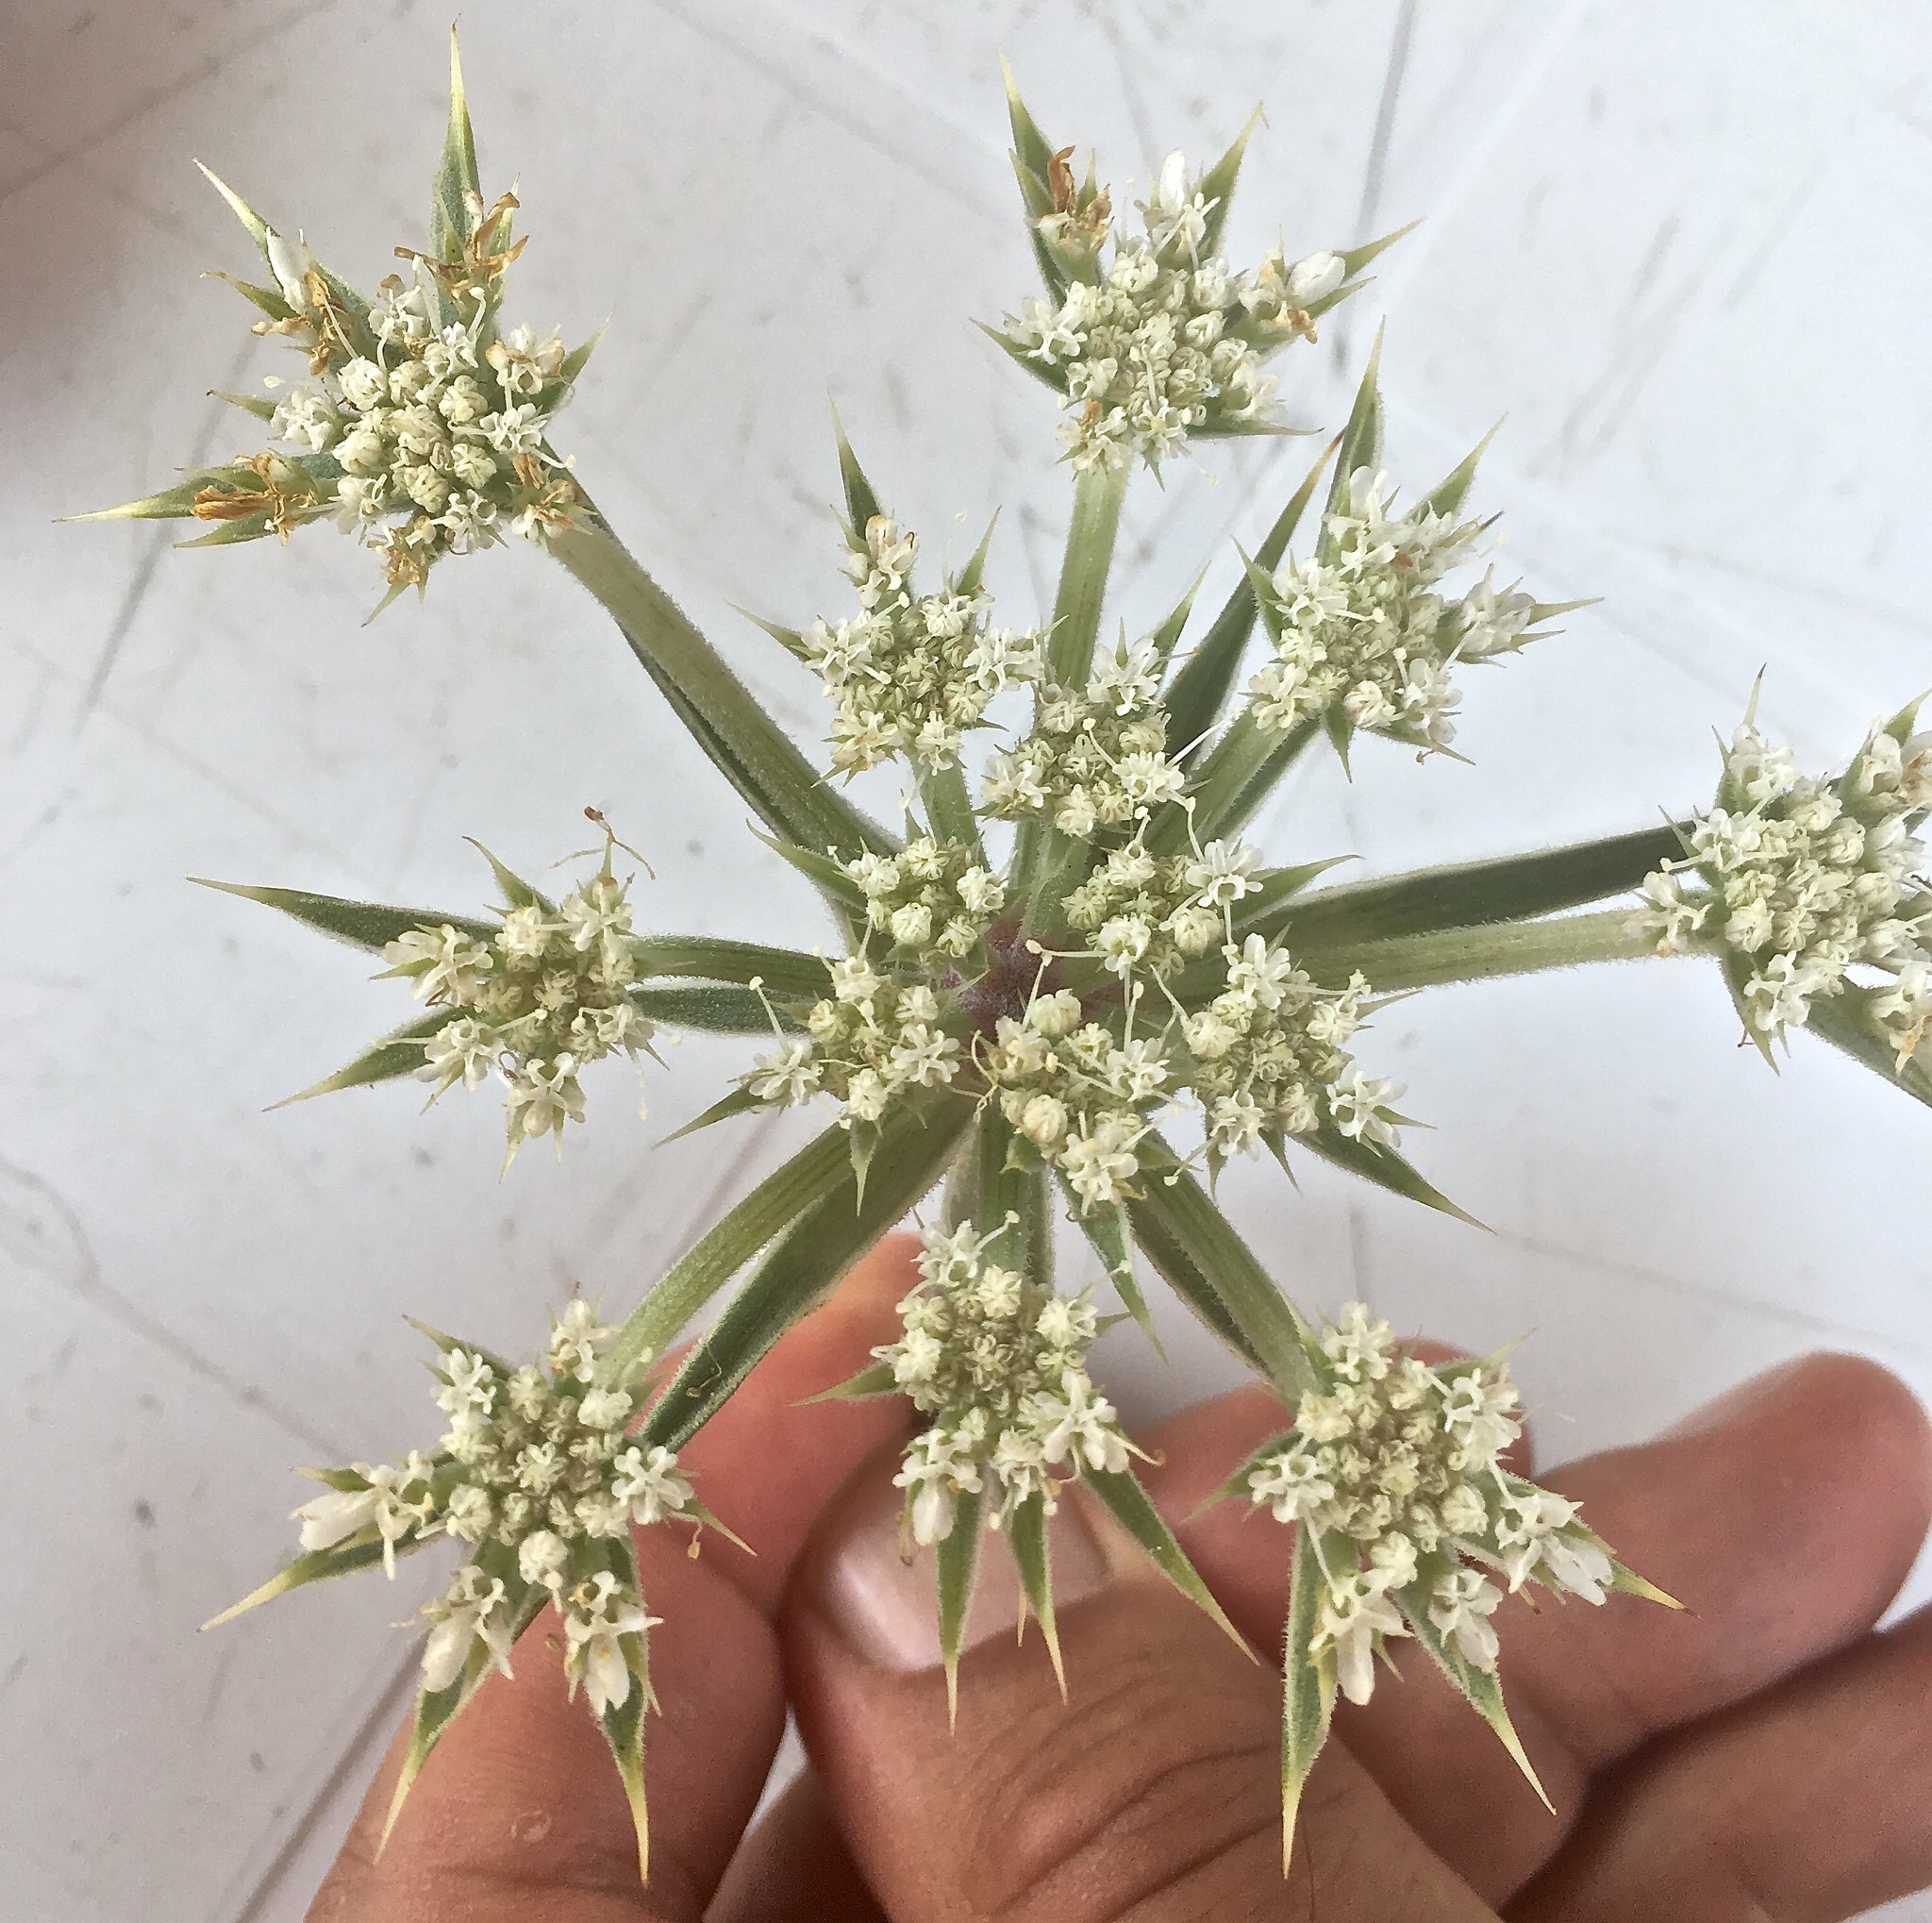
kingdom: Plantae
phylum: Tracheophyta
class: Magnoliopsida
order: Apiales
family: Apiaceae
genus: Echinophora
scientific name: Echinophora spinosa
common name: Prickly samphire
